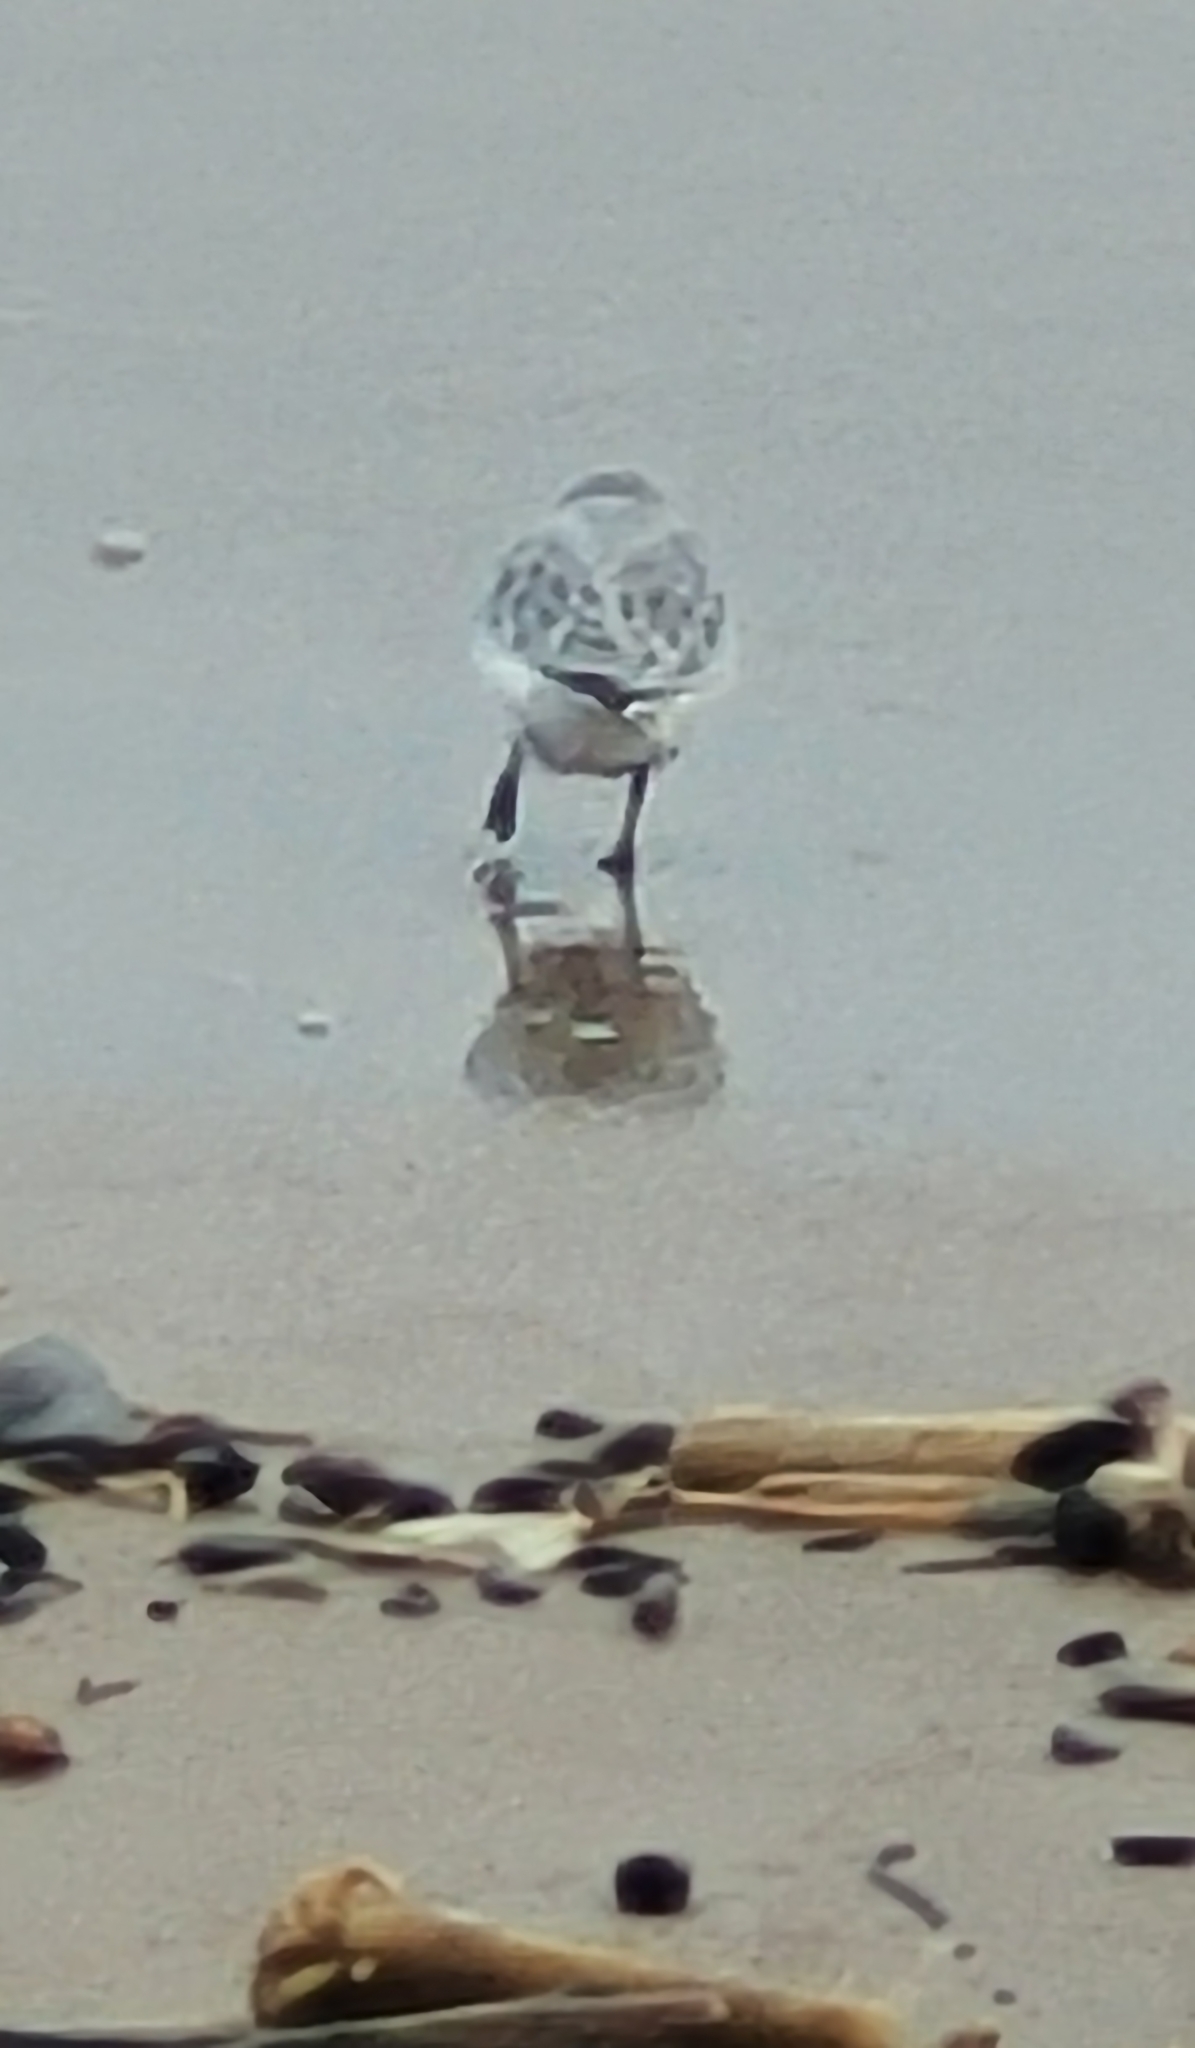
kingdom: Animalia
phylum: Chordata
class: Aves
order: Charadriiformes
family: Scolopacidae
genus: Calidris
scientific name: Calidris alba
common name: Sanderling
